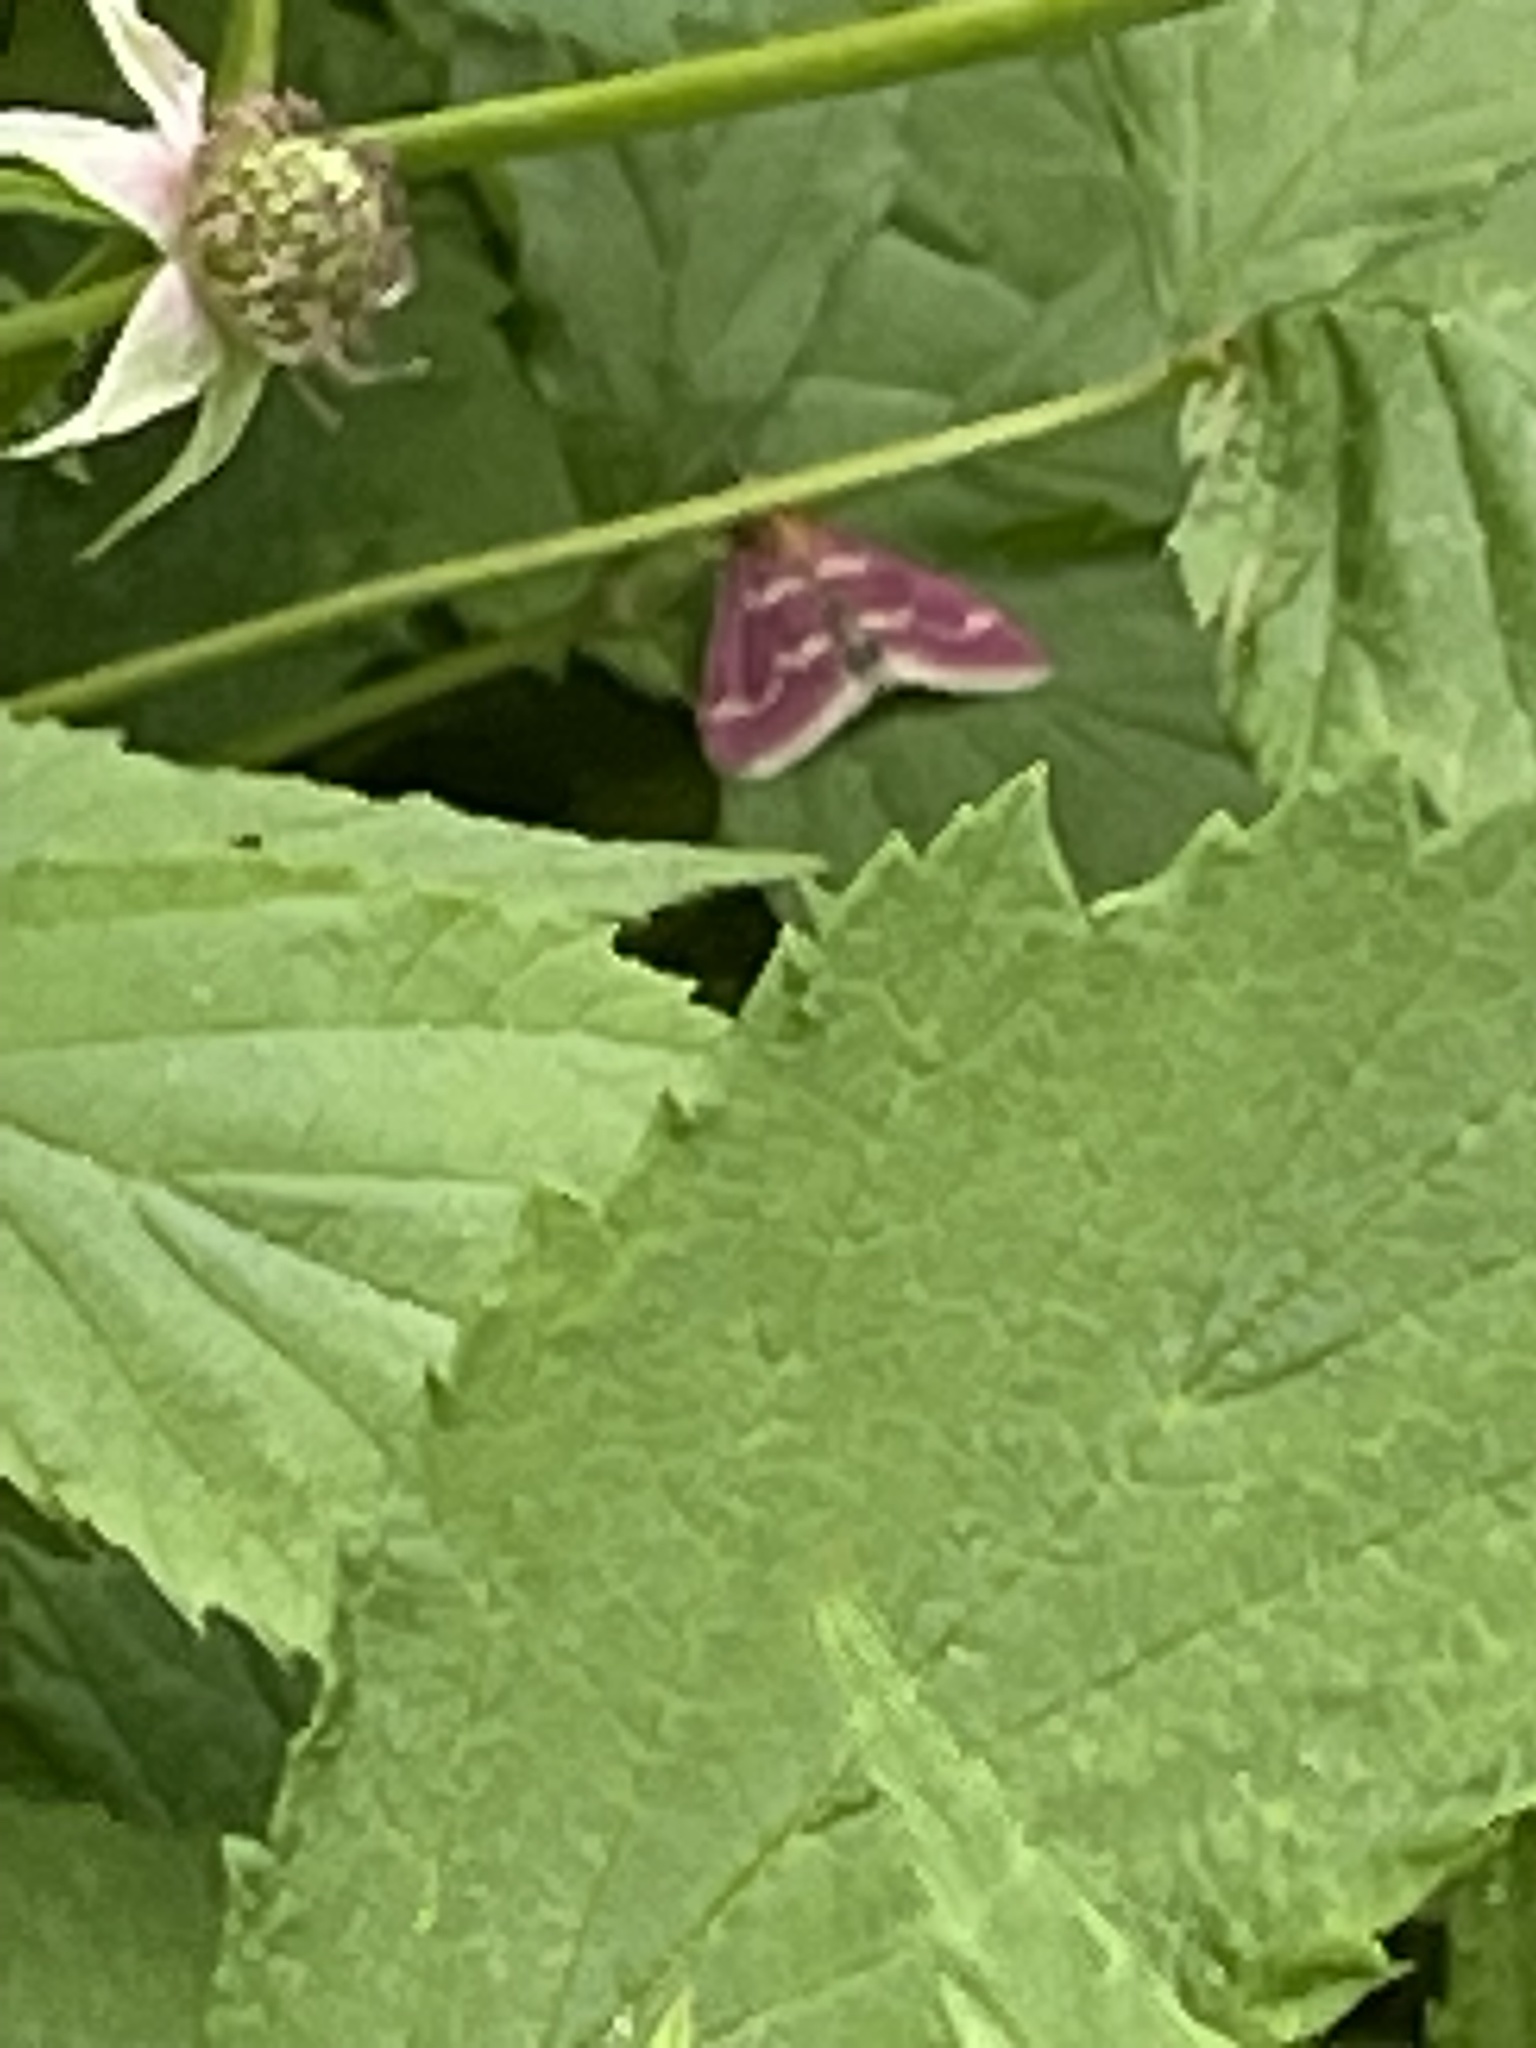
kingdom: Animalia
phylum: Arthropoda
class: Insecta
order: Lepidoptera
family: Crambidae
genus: Pyrausta
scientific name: Pyrausta signatalis
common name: Raspberry pyrausta moth
